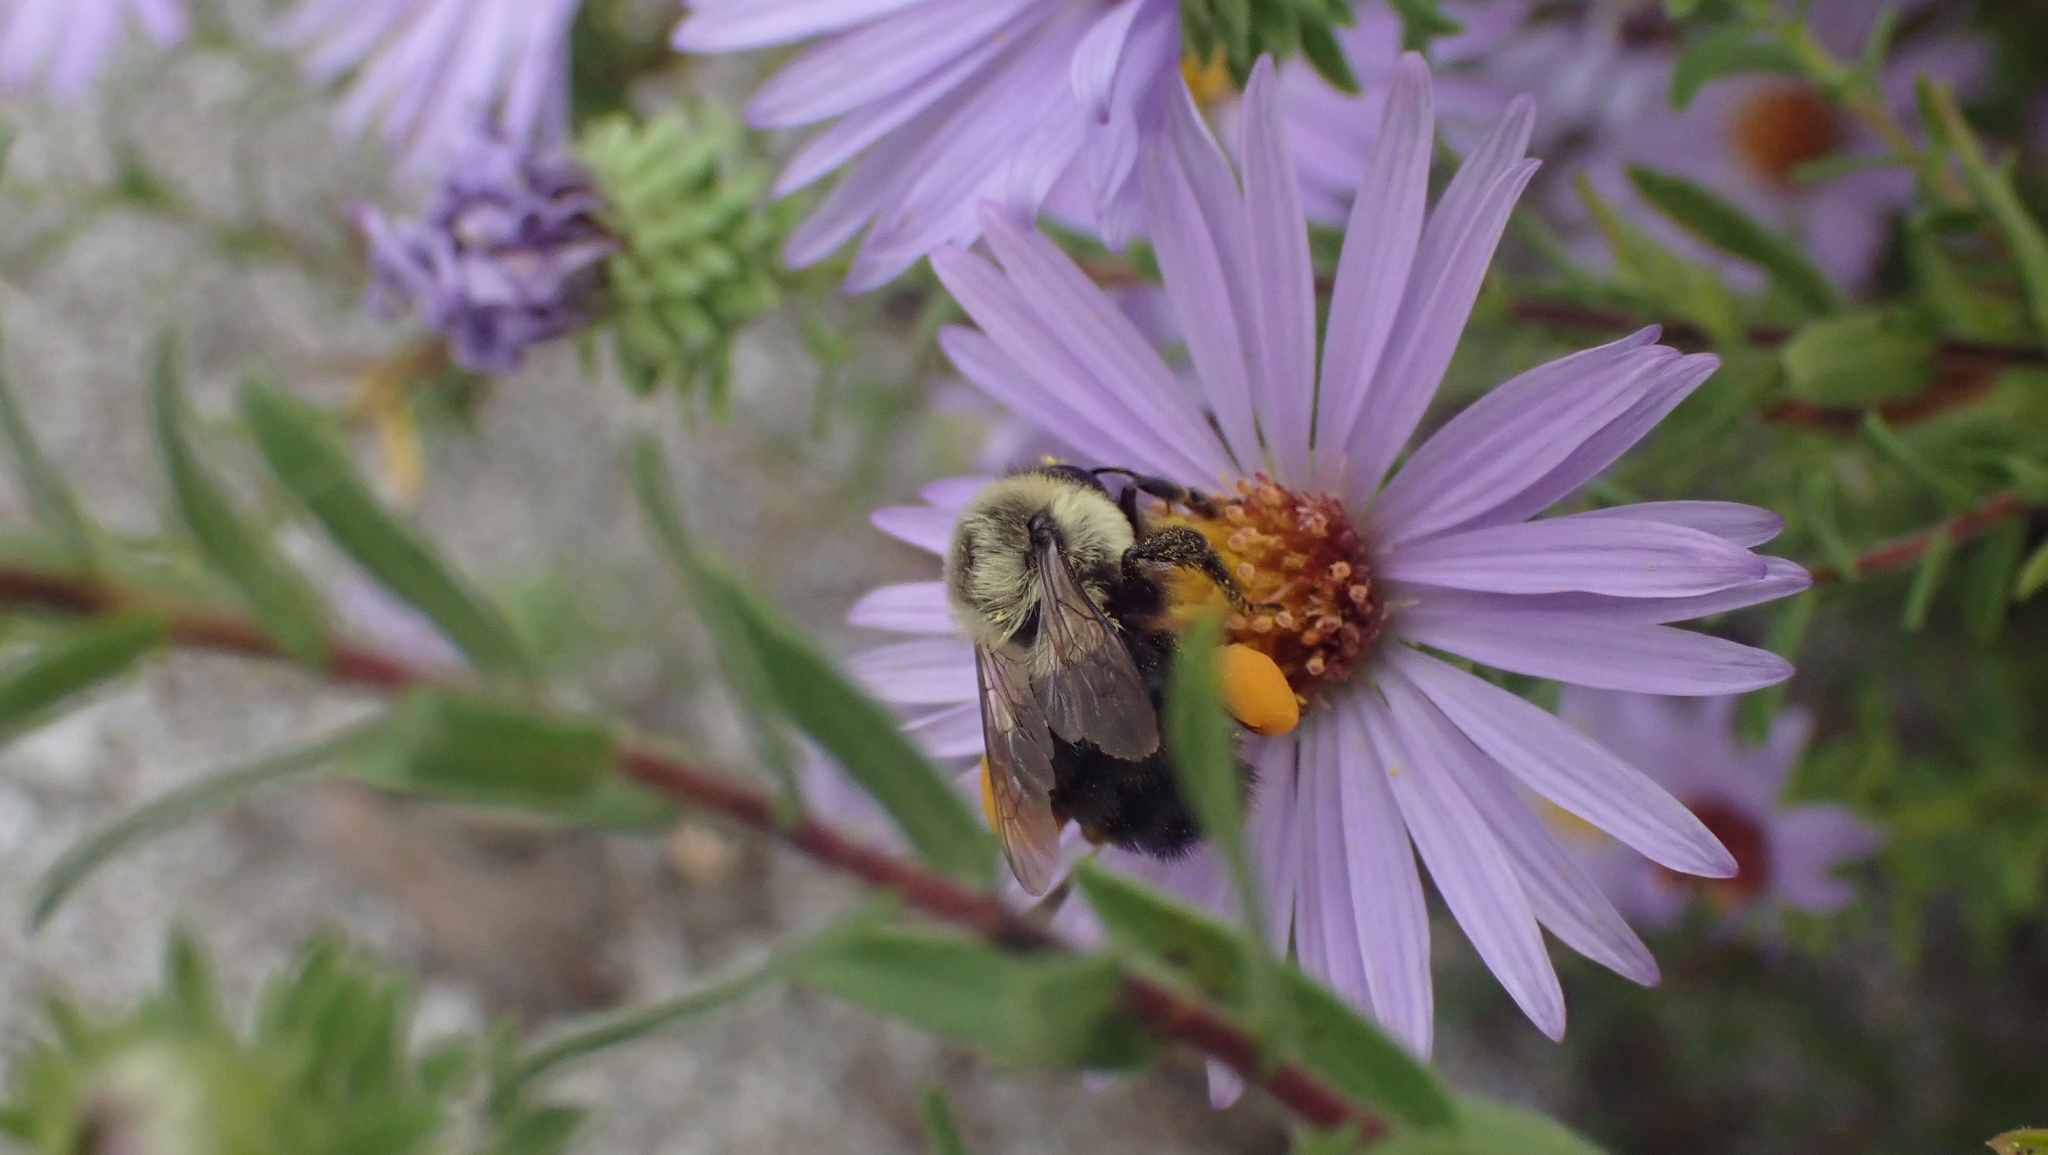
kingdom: Animalia
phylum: Arthropoda
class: Insecta
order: Hymenoptera
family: Apidae
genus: Bombus
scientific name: Bombus impatiens
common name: Common eastern bumble bee
